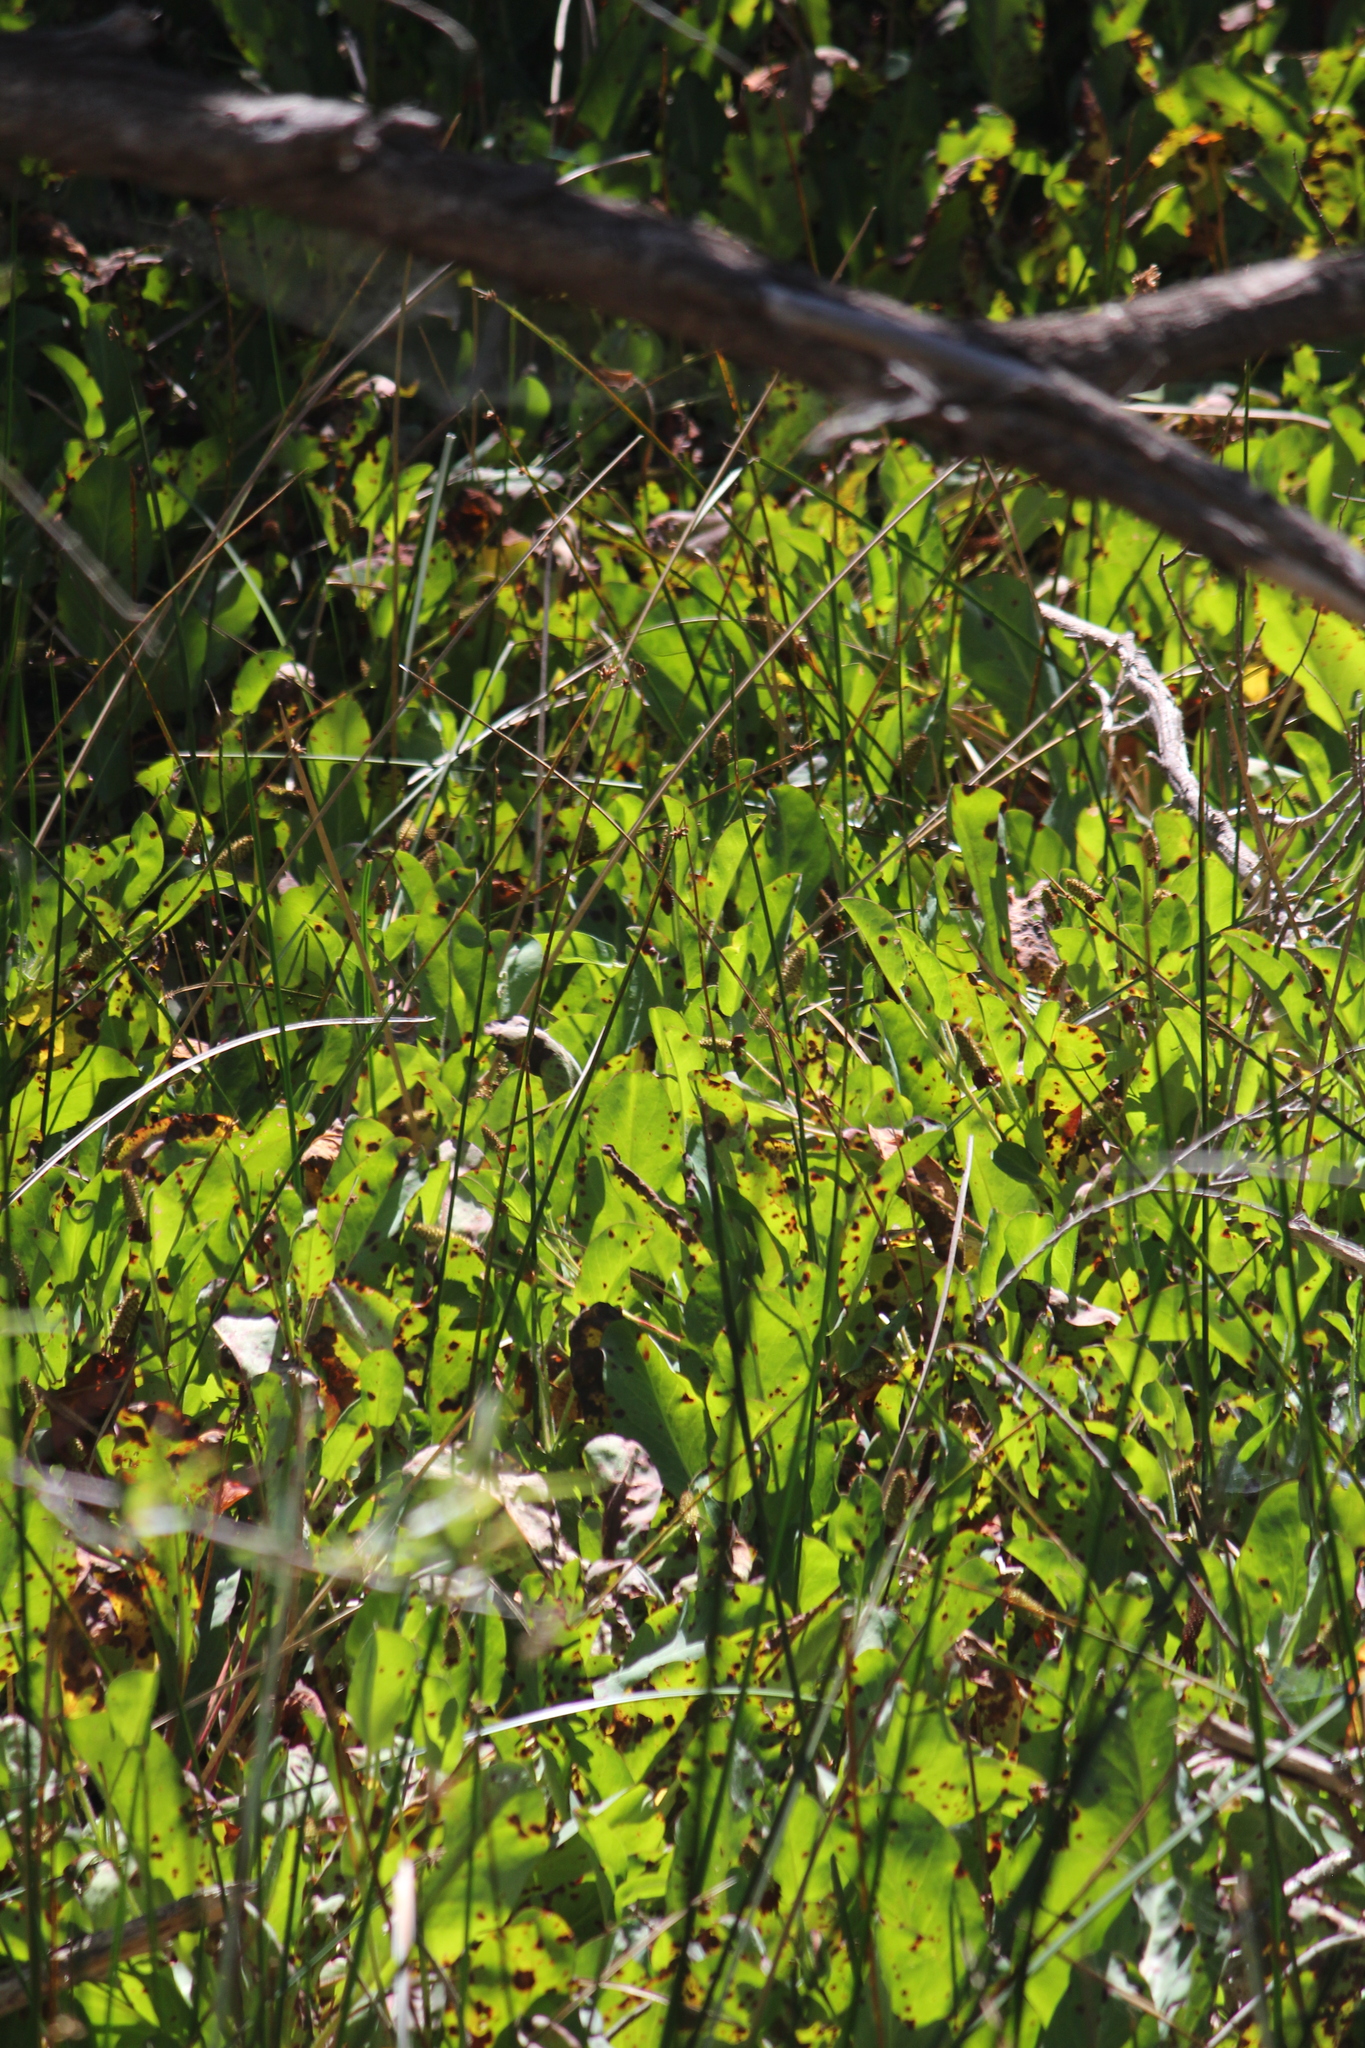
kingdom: Plantae
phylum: Tracheophyta
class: Magnoliopsida
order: Piperales
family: Saururaceae
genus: Anemopsis
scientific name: Anemopsis californica
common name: Apache-beads
